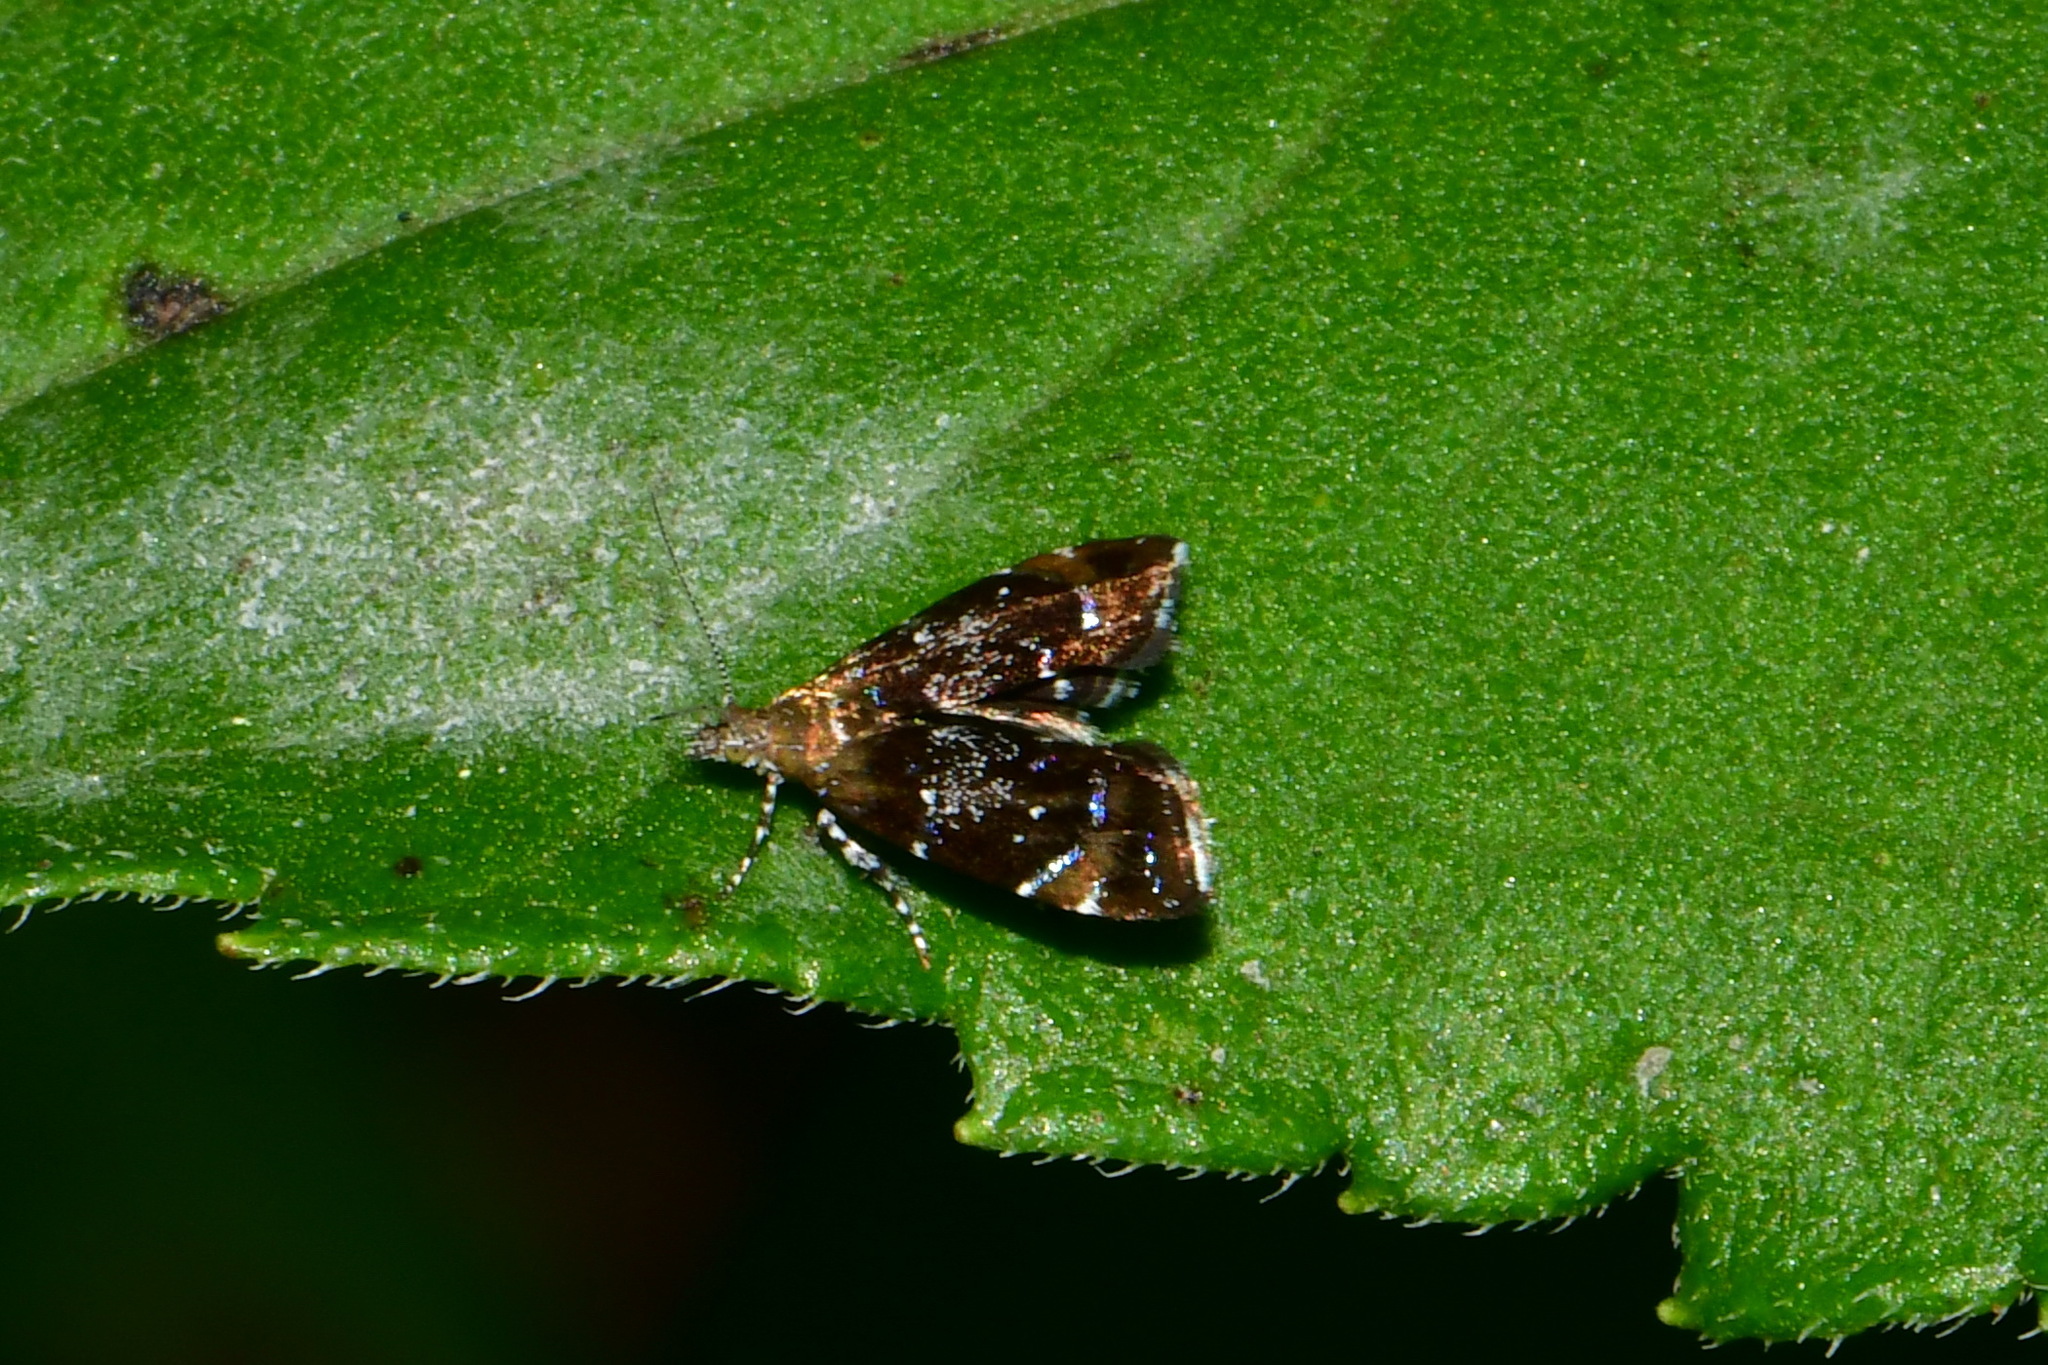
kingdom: Animalia
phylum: Arthropoda
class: Insecta
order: Lepidoptera
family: Choreutidae
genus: Prochoreutis
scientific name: Prochoreutis sehestediana
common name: Silver-dot twitcher
